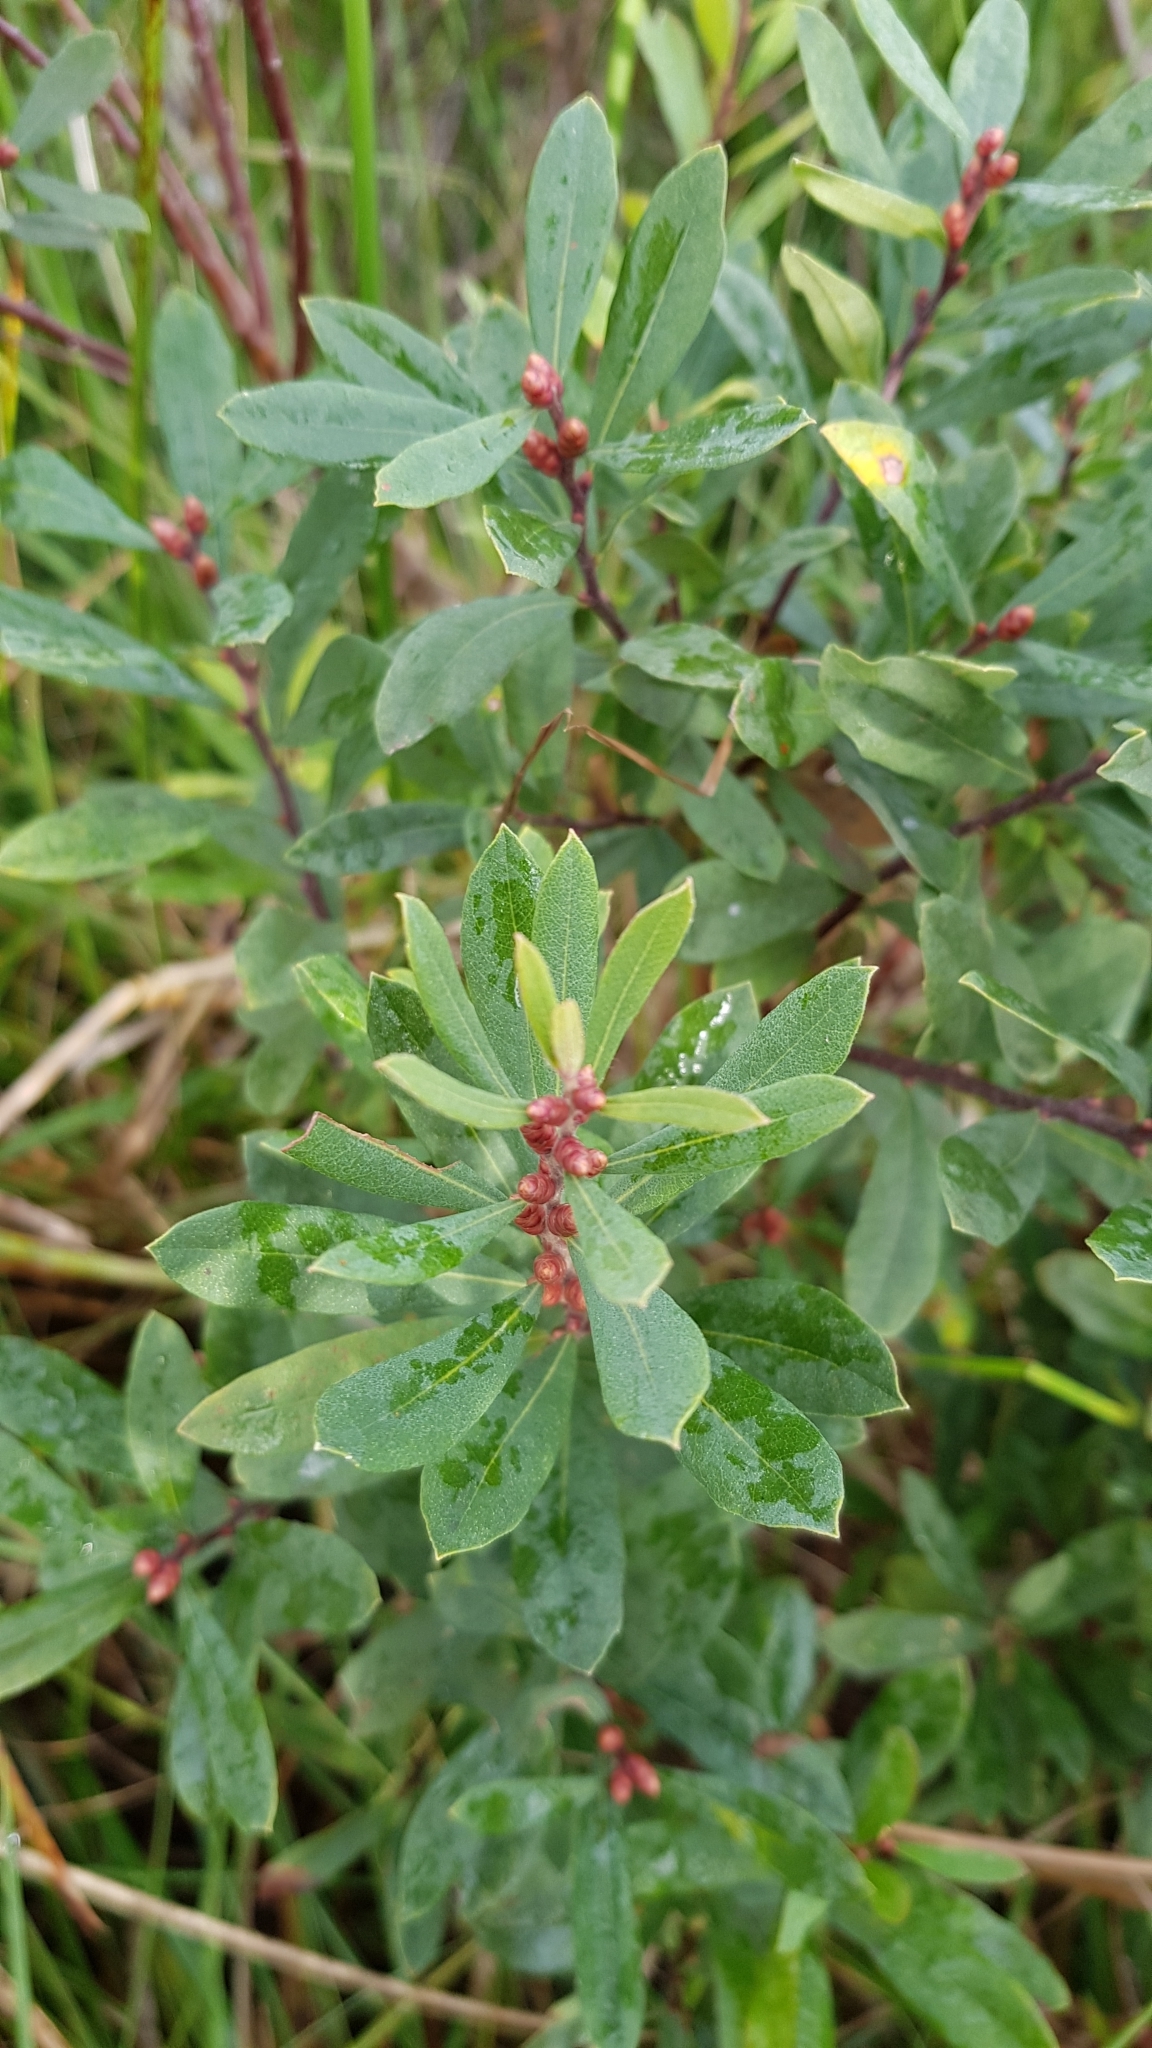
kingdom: Plantae
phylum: Tracheophyta
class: Magnoliopsida
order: Fagales
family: Myricaceae
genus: Myrica
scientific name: Myrica gale
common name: Sweet gale
